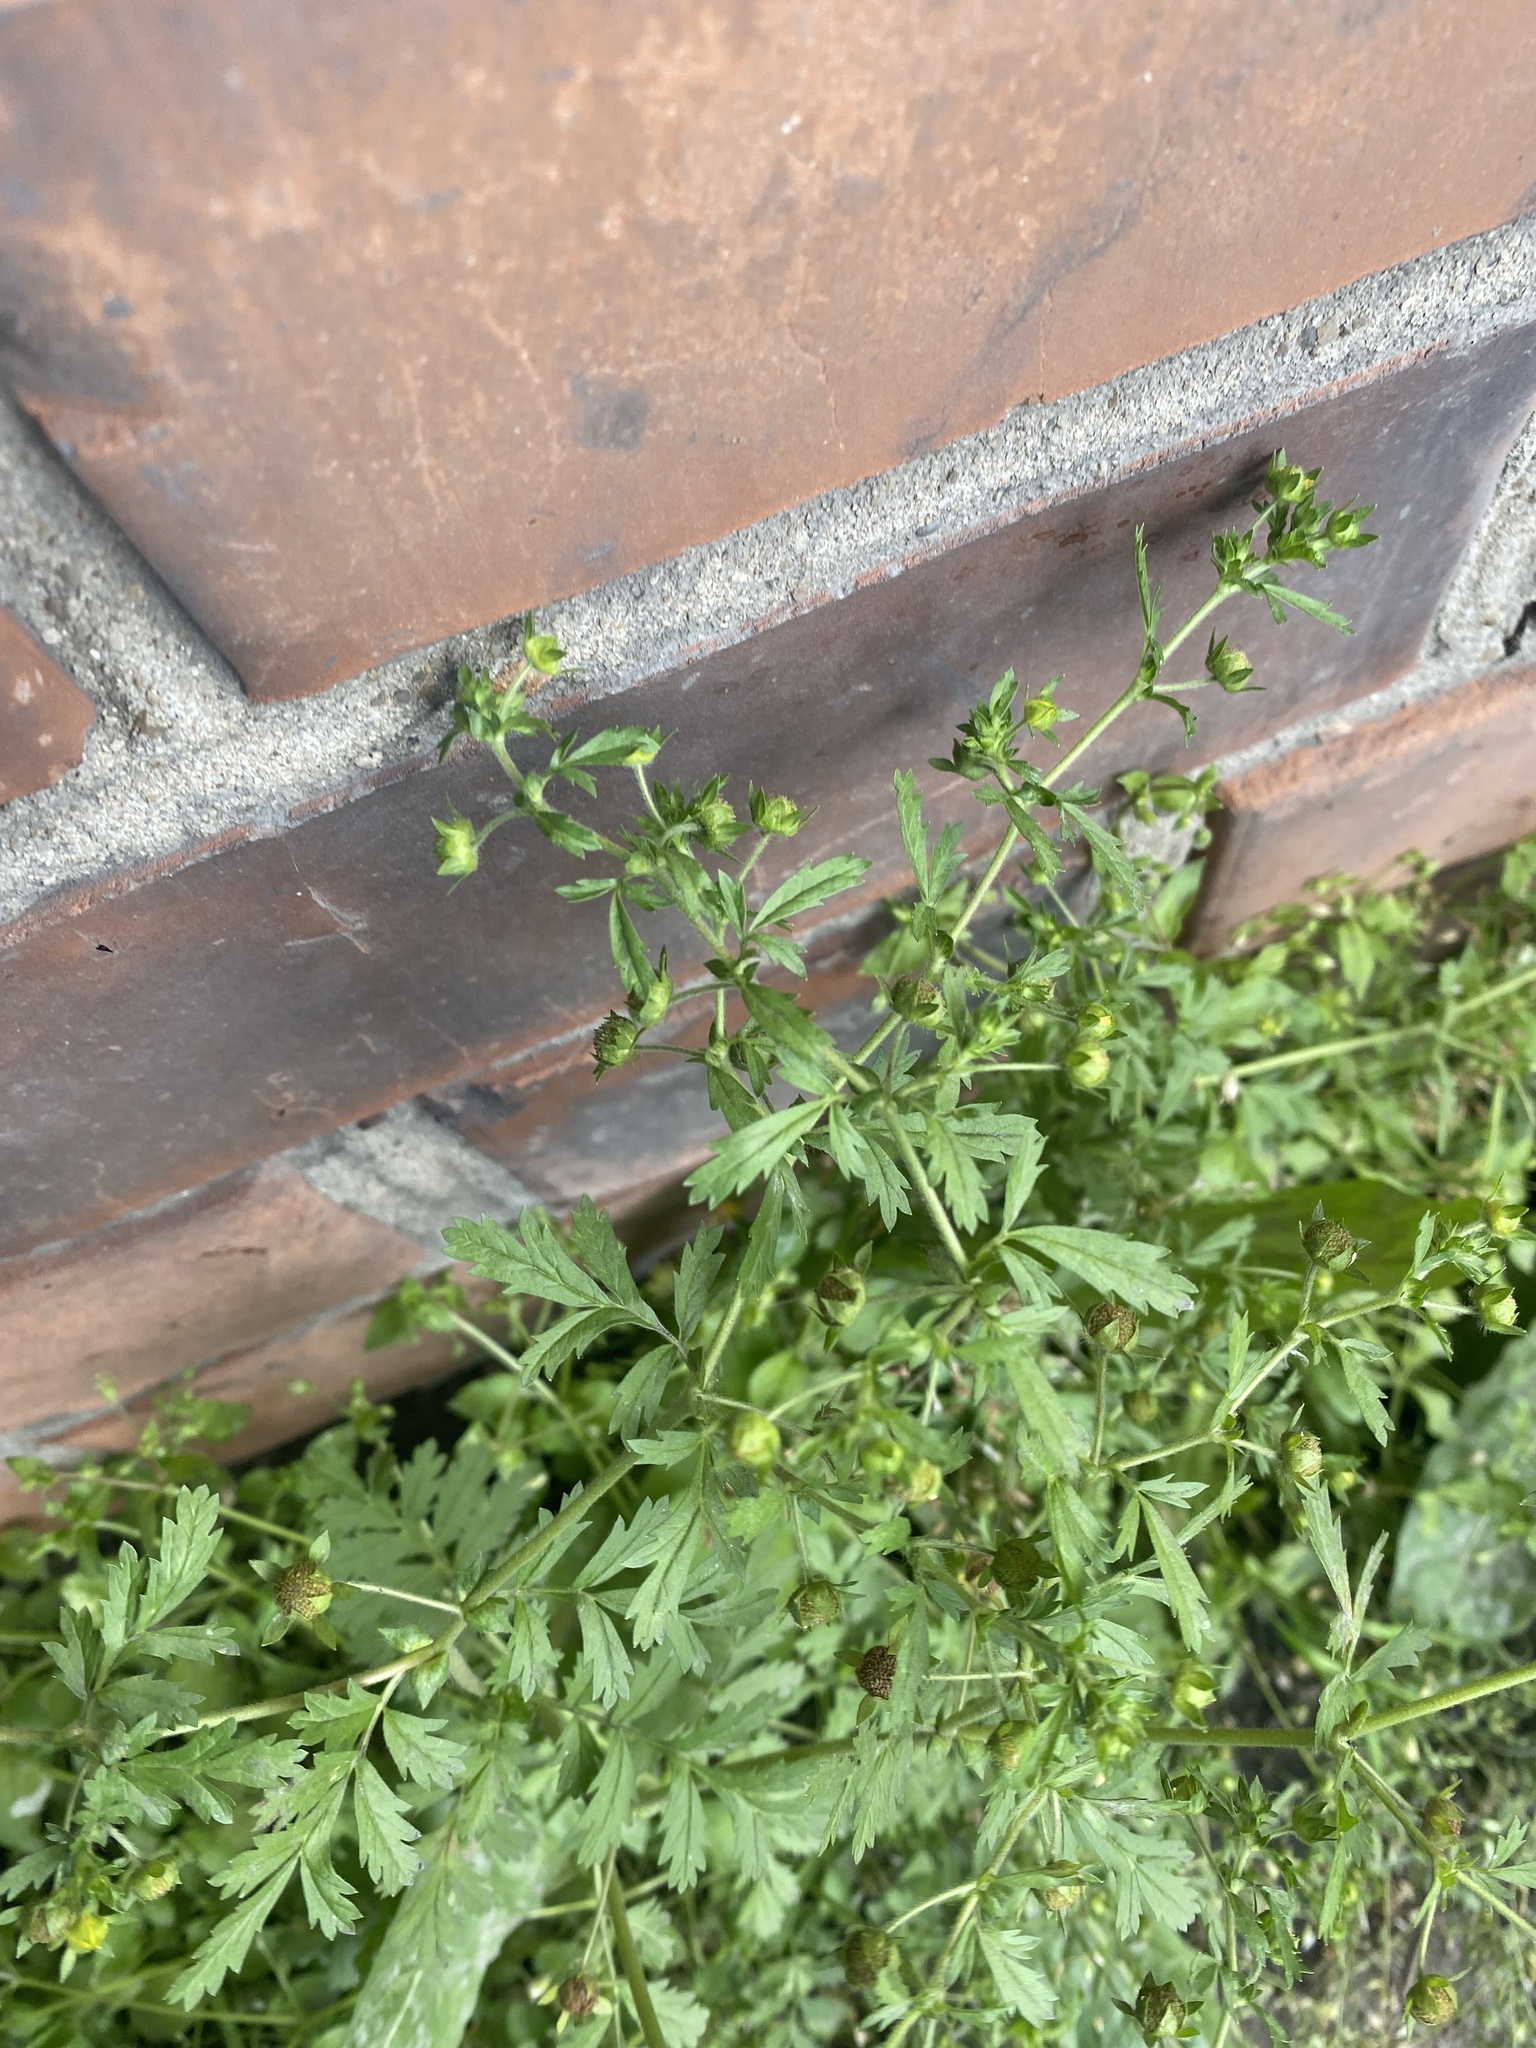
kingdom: Plantae
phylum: Tracheophyta
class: Magnoliopsida
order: Rosales
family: Rosaceae
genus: Potentilla
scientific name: Potentilla supina
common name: Prostrate cinquefoil
